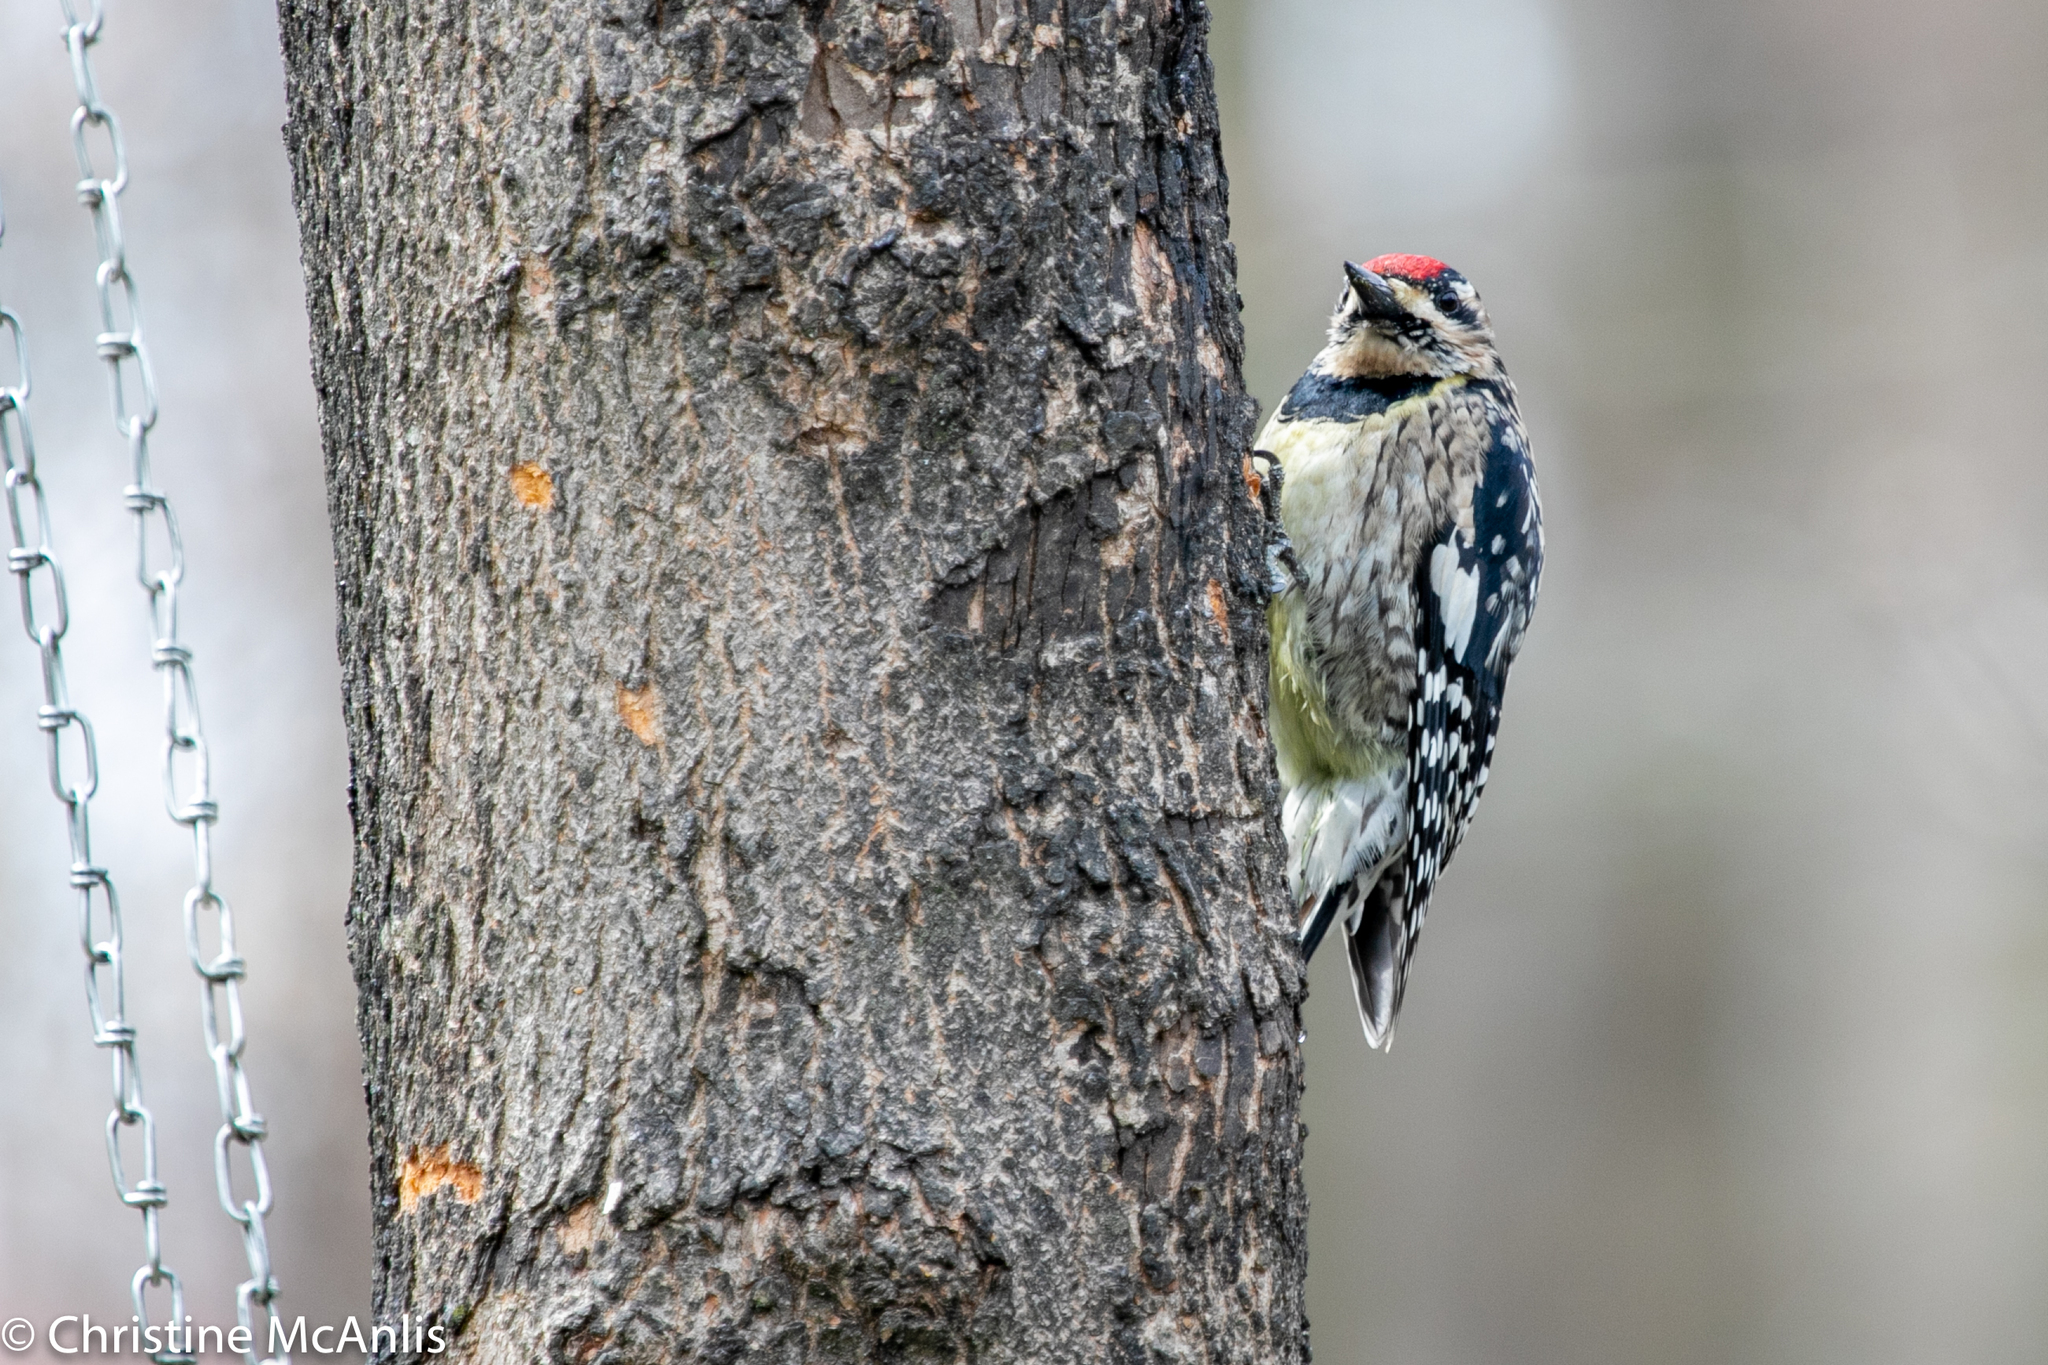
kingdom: Animalia
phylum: Chordata
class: Aves
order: Piciformes
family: Picidae
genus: Sphyrapicus
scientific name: Sphyrapicus varius
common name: Yellow-bellied sapsucker
